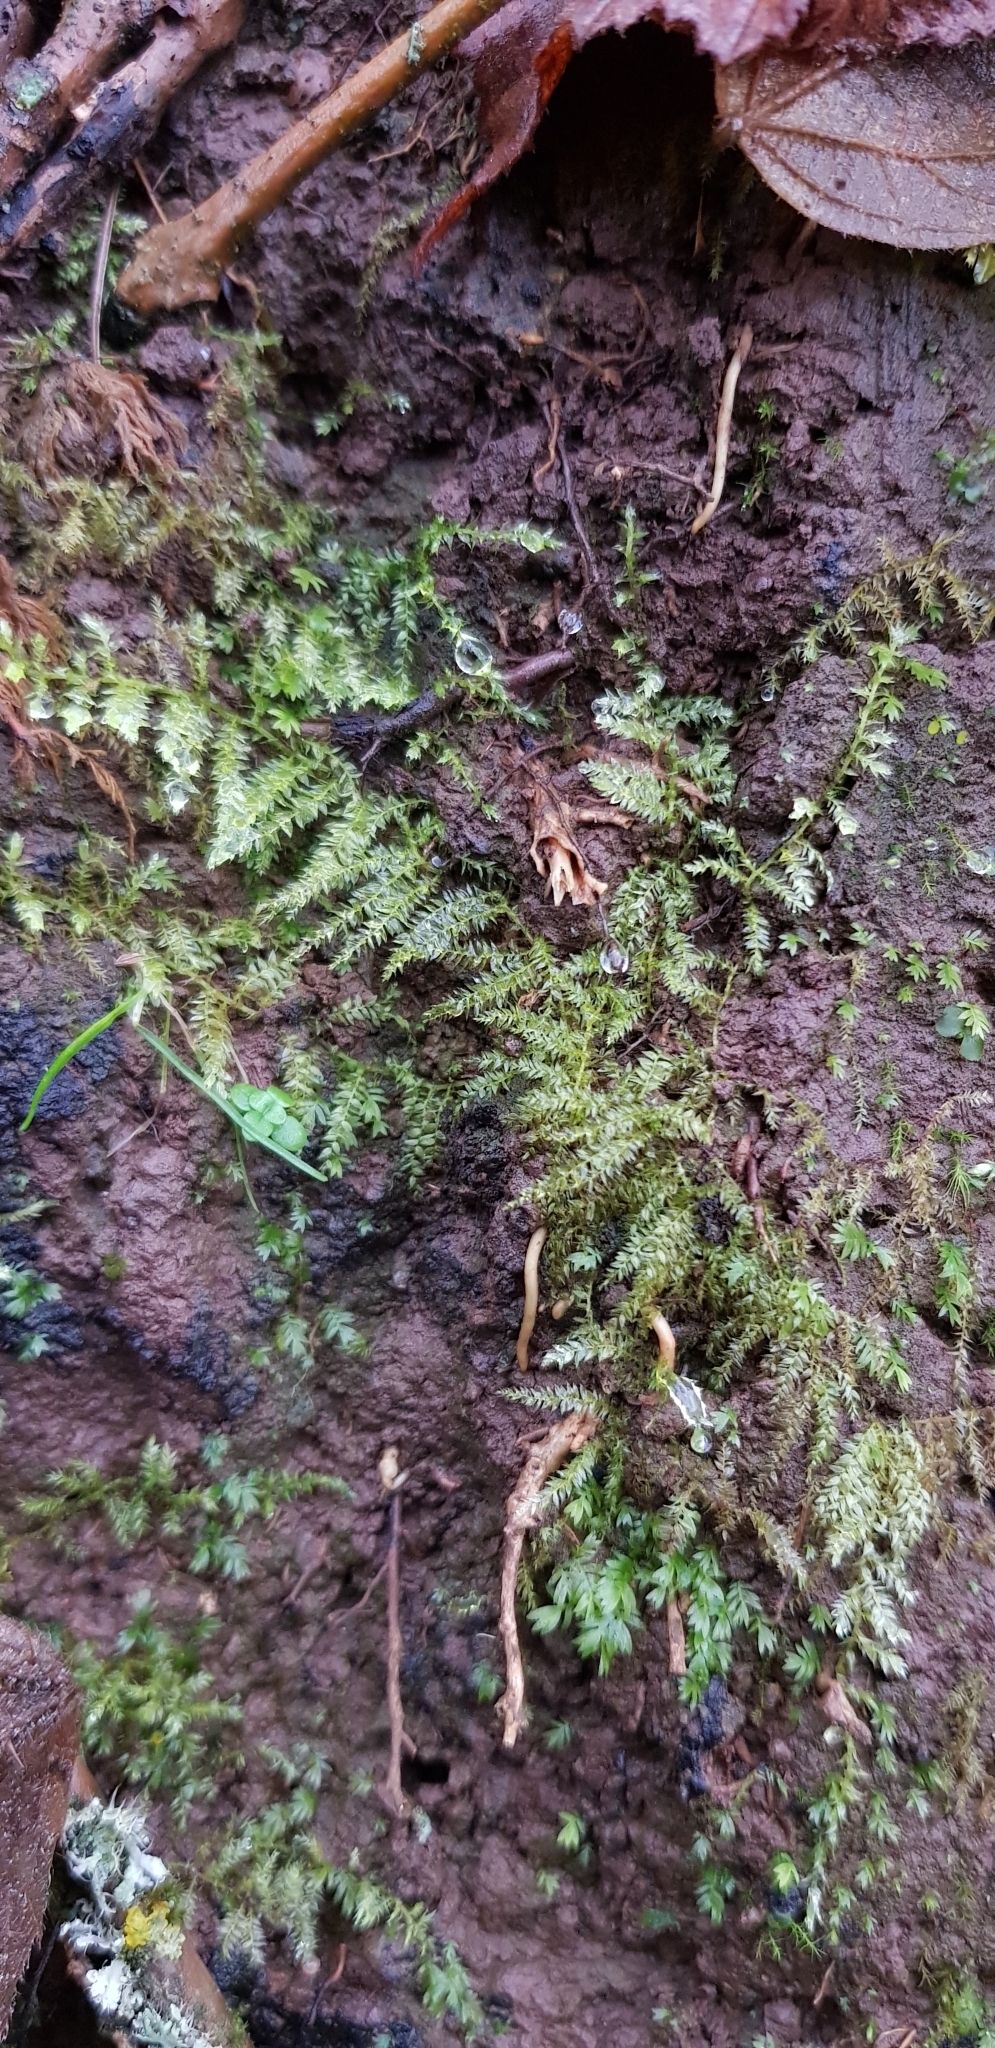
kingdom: Plantae
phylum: Bryophyta
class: Bryopsida
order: Hypnales
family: Brachytheciaceae
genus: Oxyrrhynchium
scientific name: Oxyrrhynchium hians
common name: Spreading beaked moss
